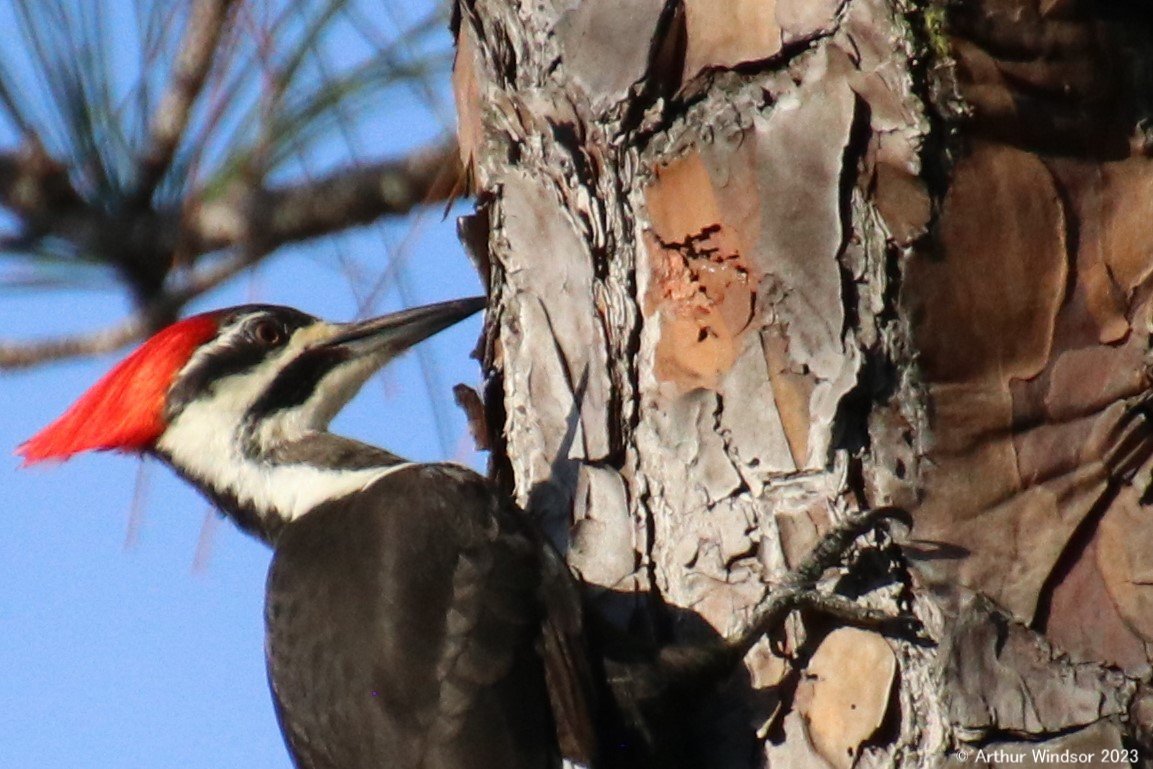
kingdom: Animalia
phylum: Chordata
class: Aves
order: Piciformes
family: Picidae
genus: Dryocopus
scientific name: Dryocopus pileatus
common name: Pileated woodpecker
